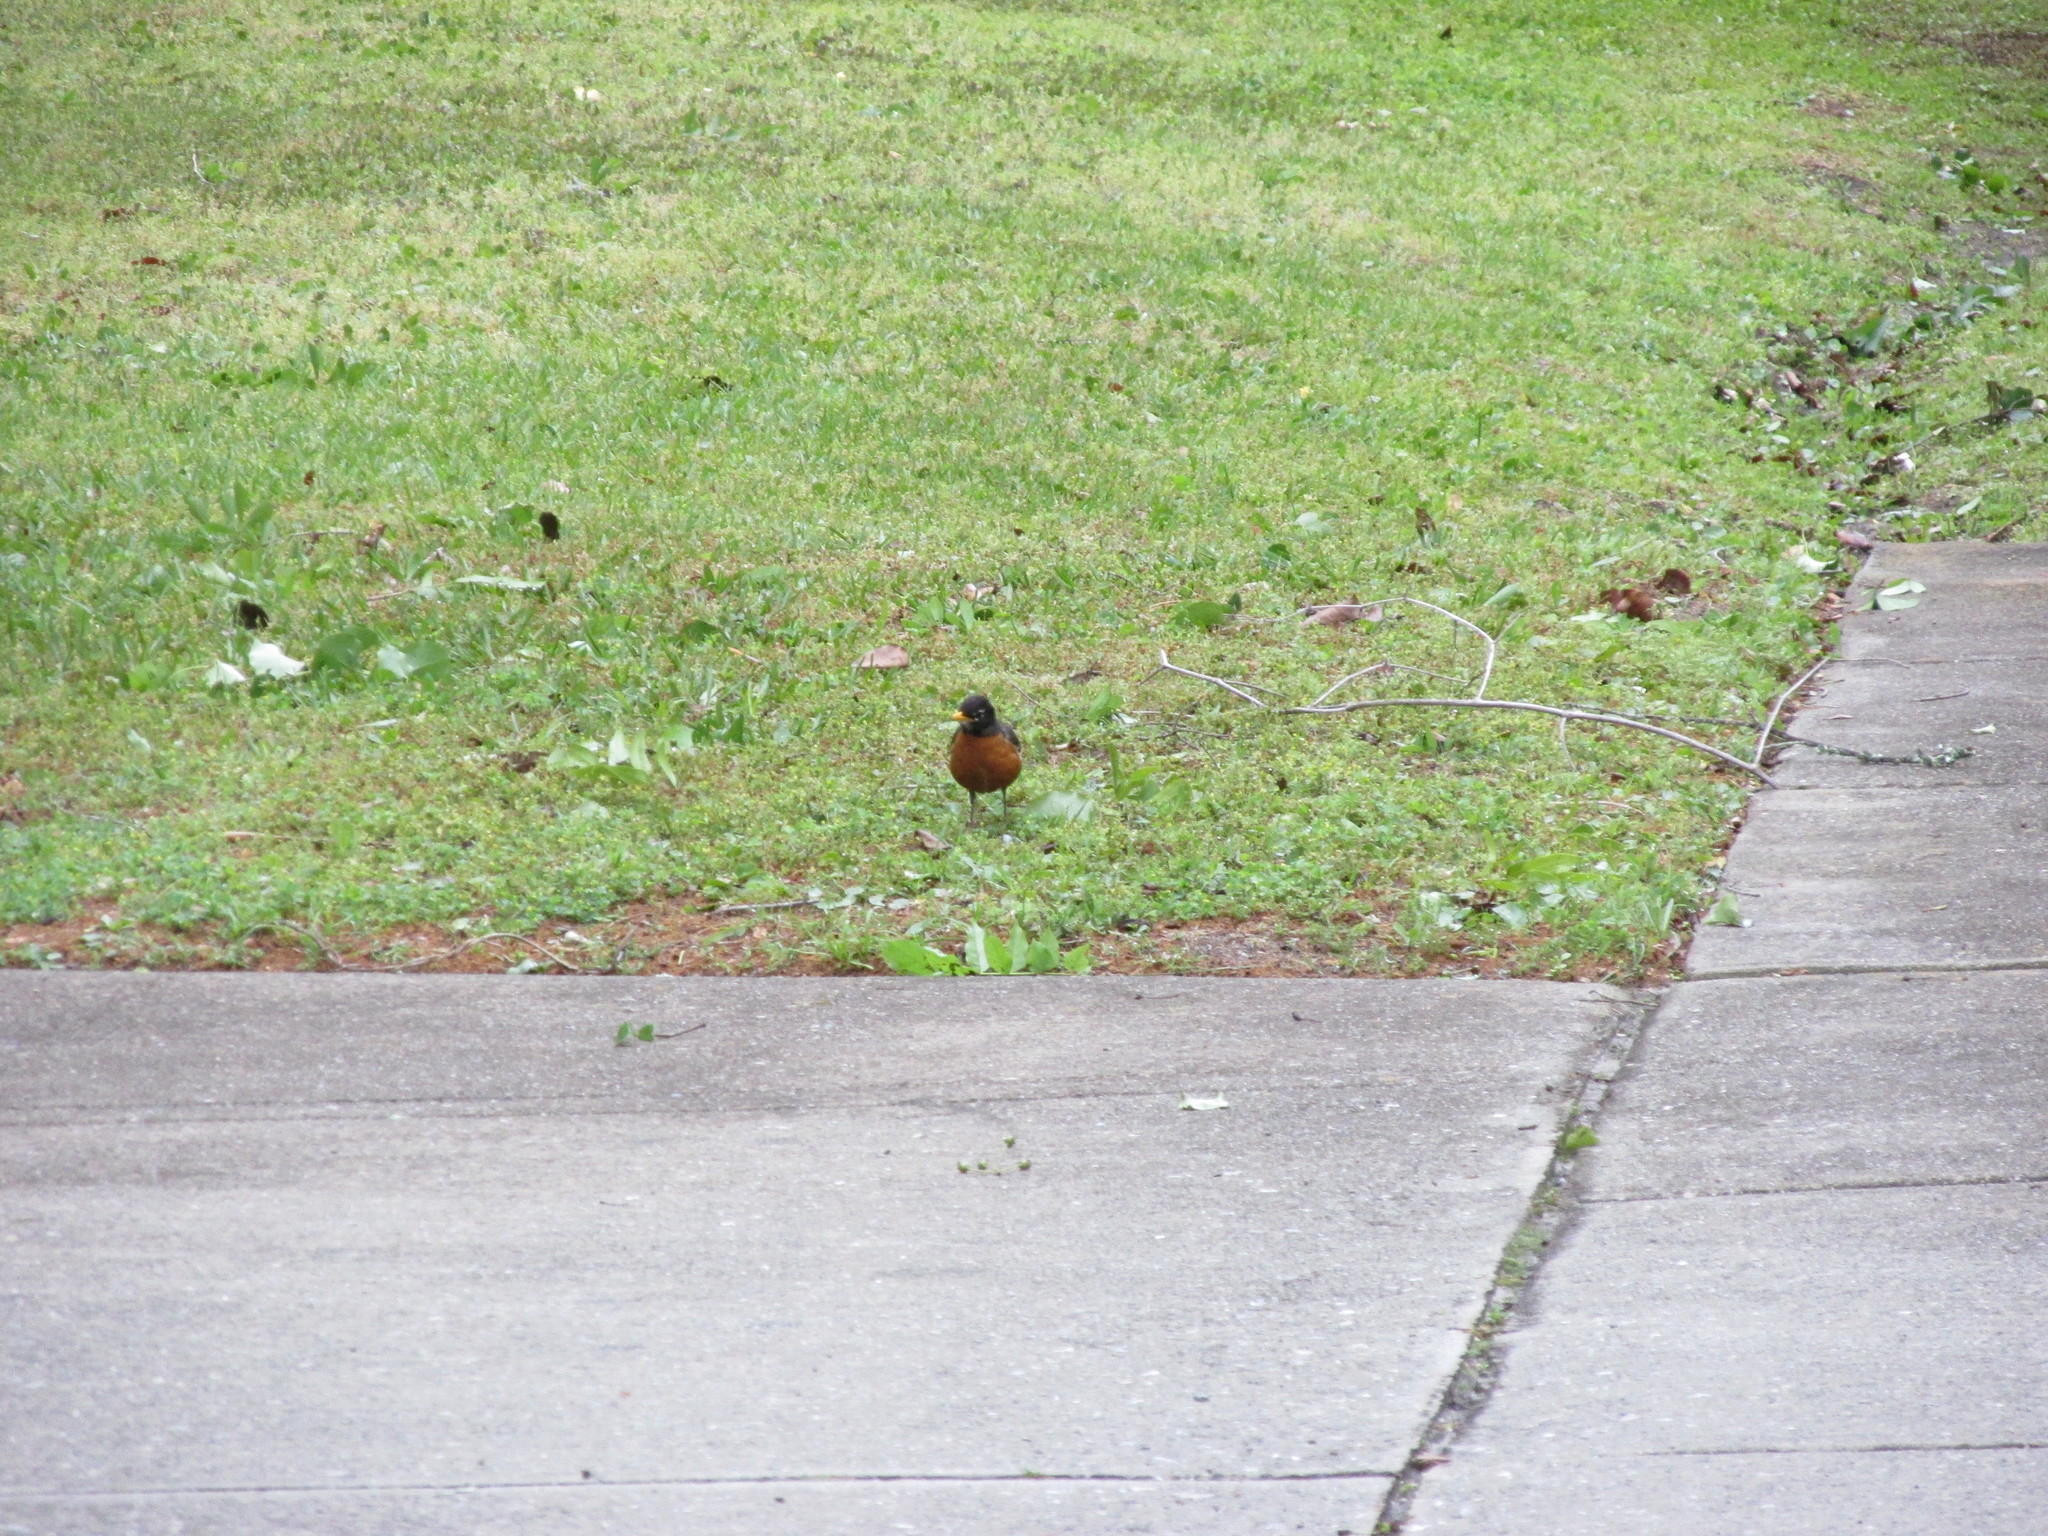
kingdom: Animalia
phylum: Chordata
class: Aves
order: Passeriformes
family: Turdidae
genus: Turdus
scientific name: Turdus migratorius
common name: American robin
